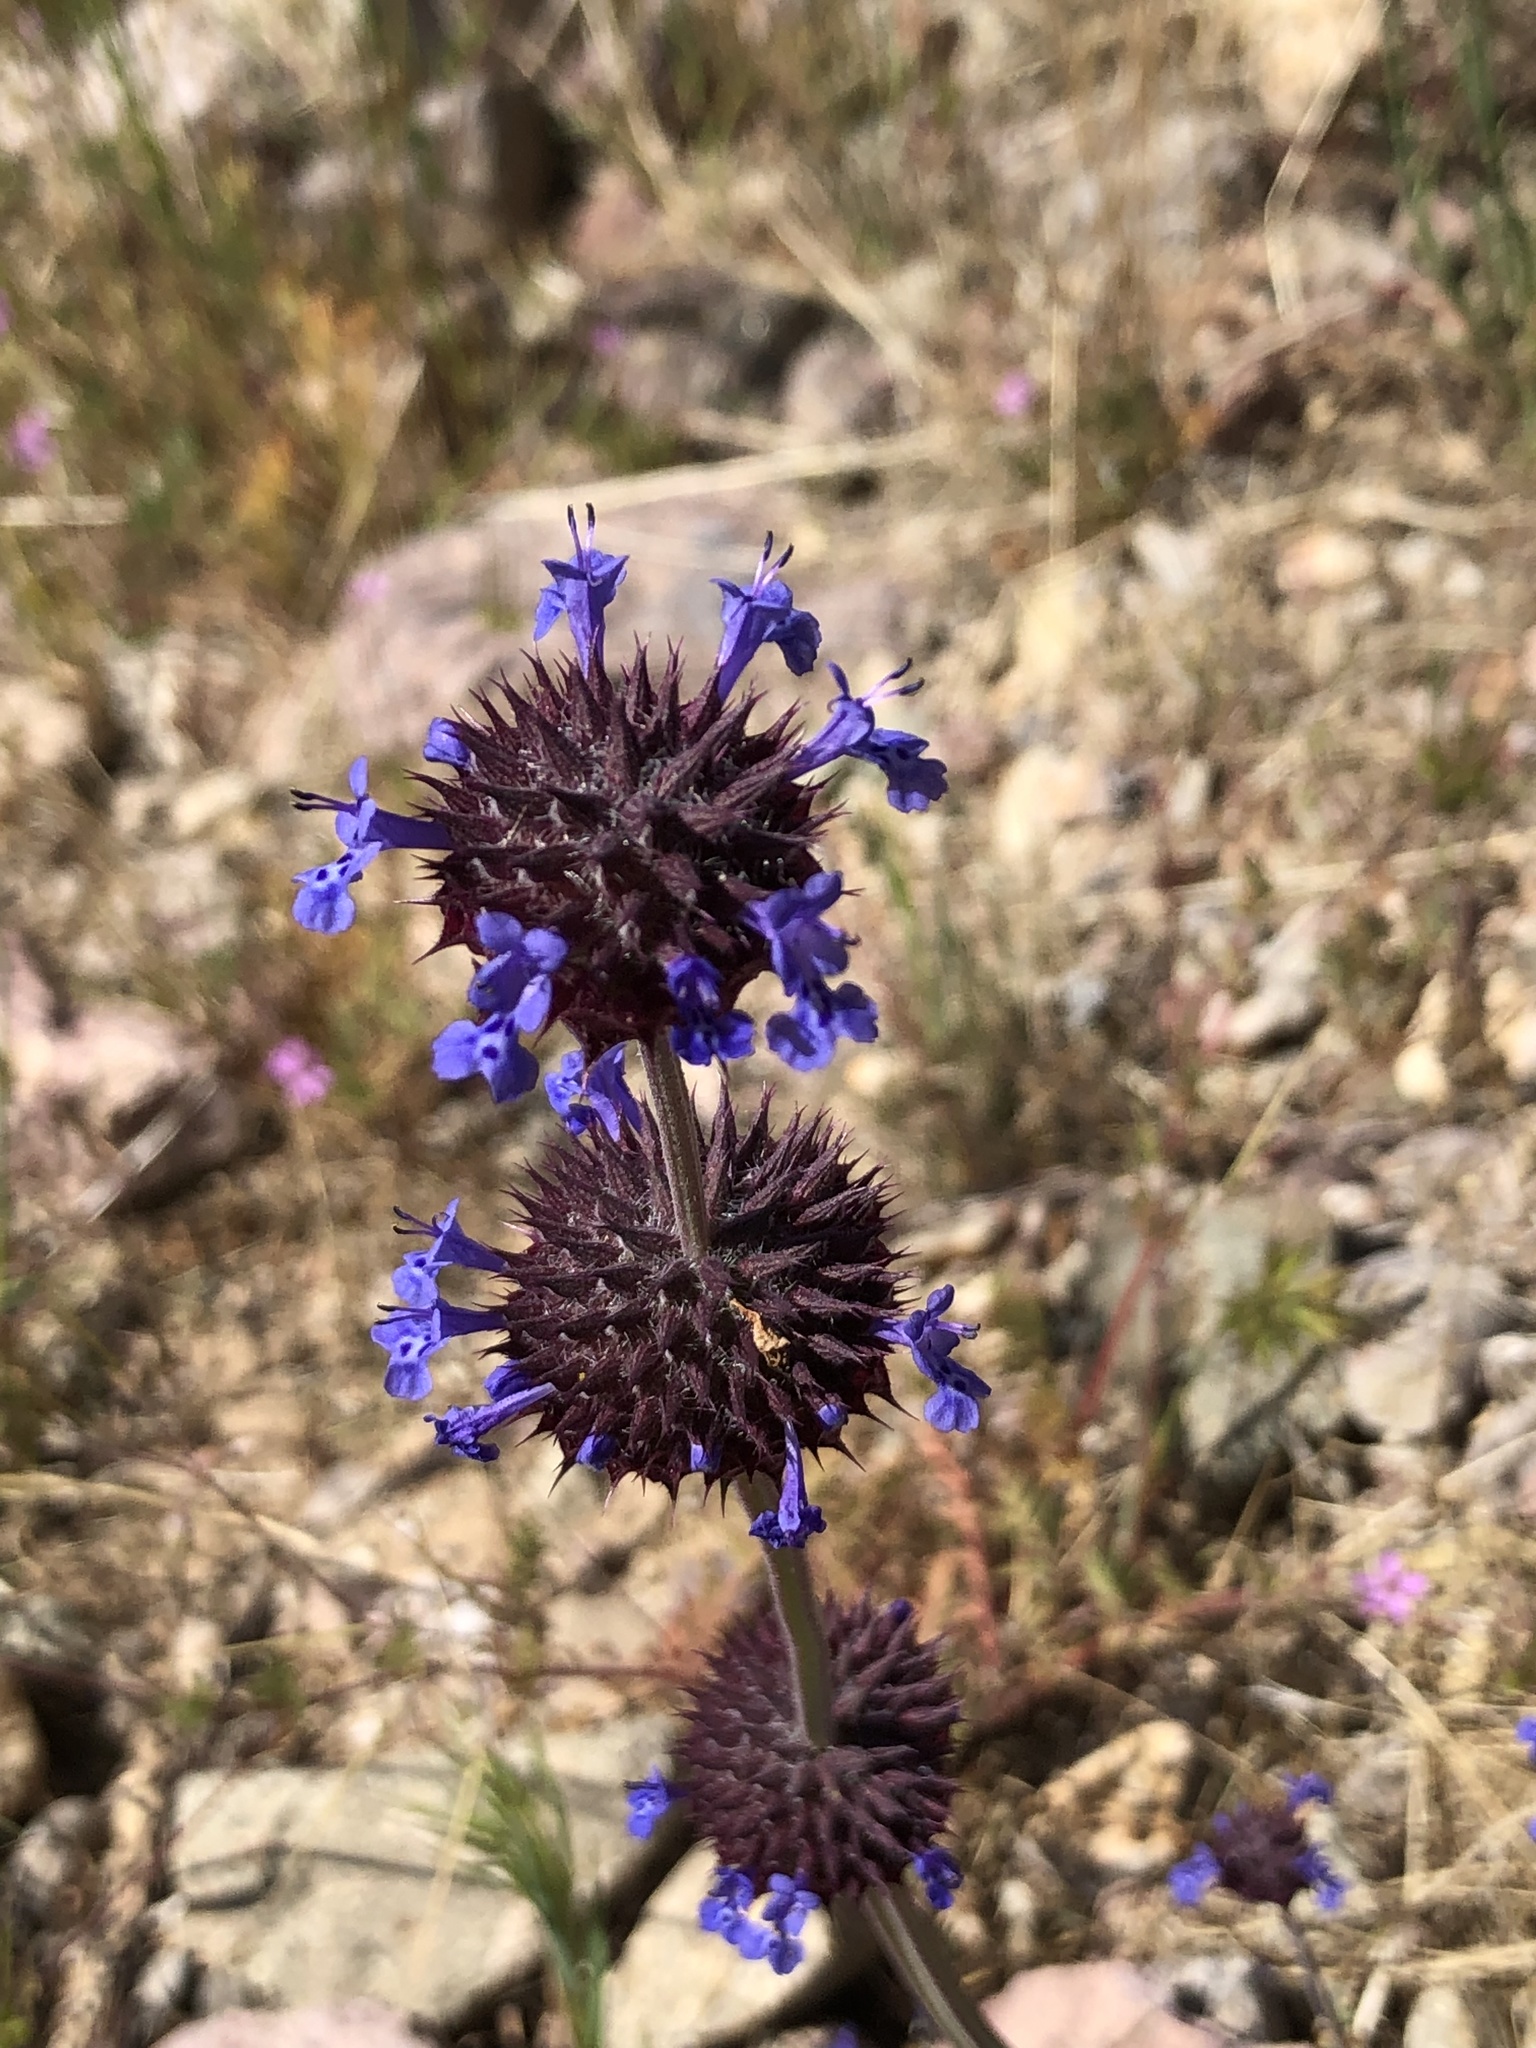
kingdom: Plantae
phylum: Tracheophyta
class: Magnoliopsida
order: Lamiales
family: Lamiaceae
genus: Salvia
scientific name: Salvia columbariae
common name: Chia
